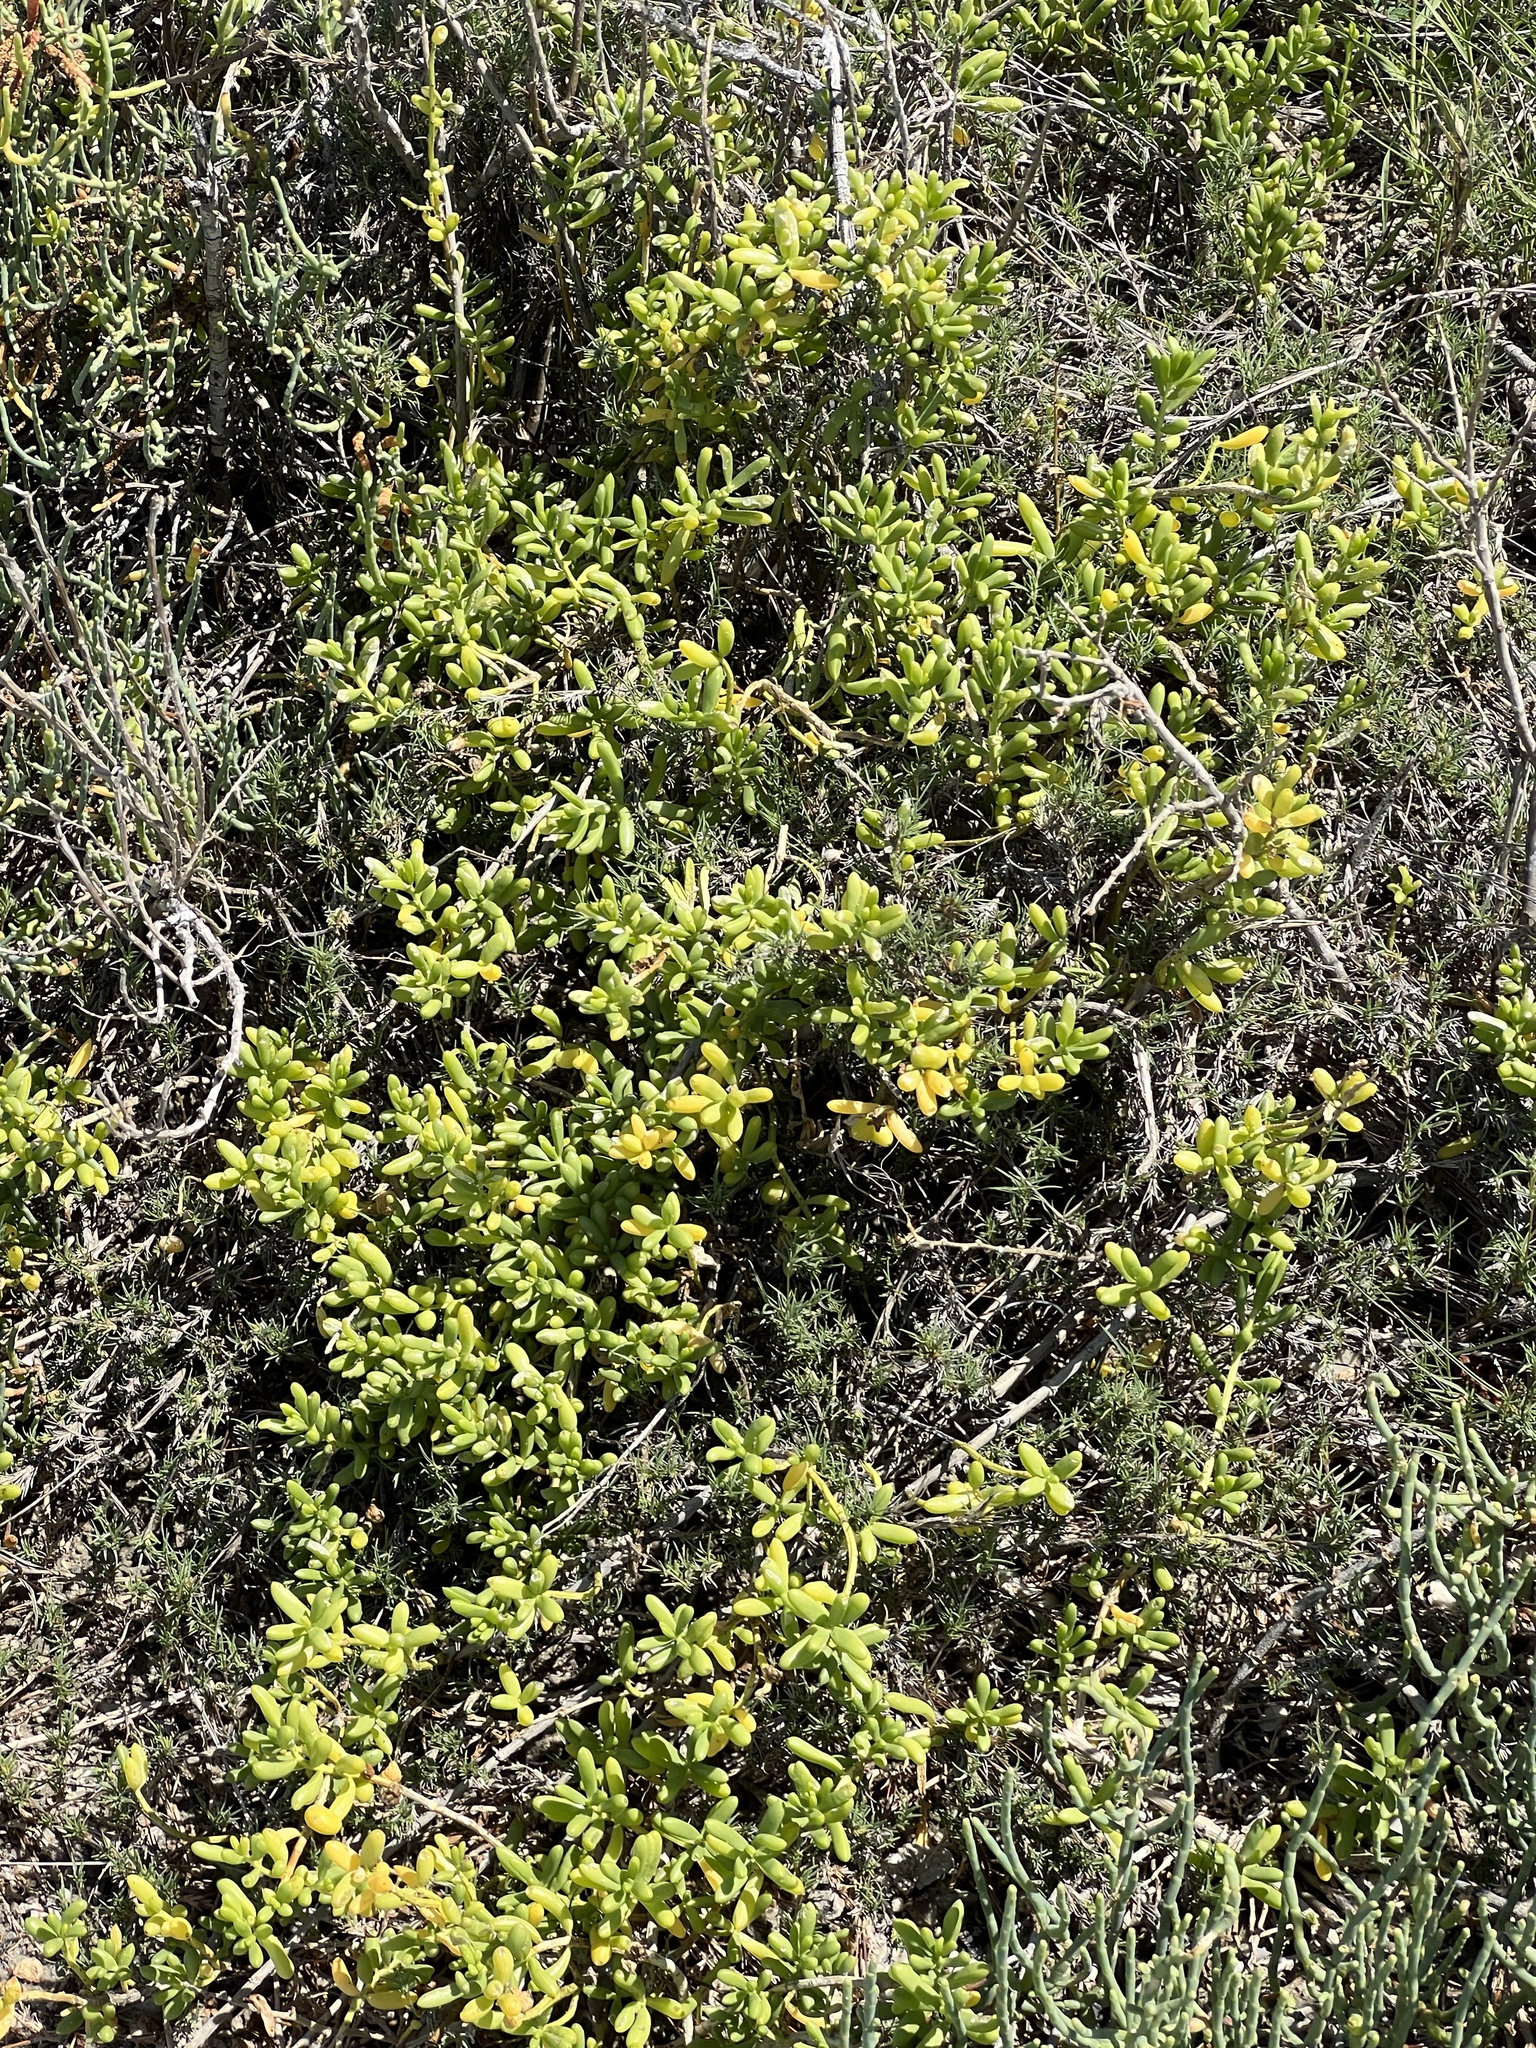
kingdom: Plantae
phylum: Tracheophyta
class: Magnoliopsida
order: Brassicales
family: Bataceae
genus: Batis
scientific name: Batis maritima
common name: Turtleweed
